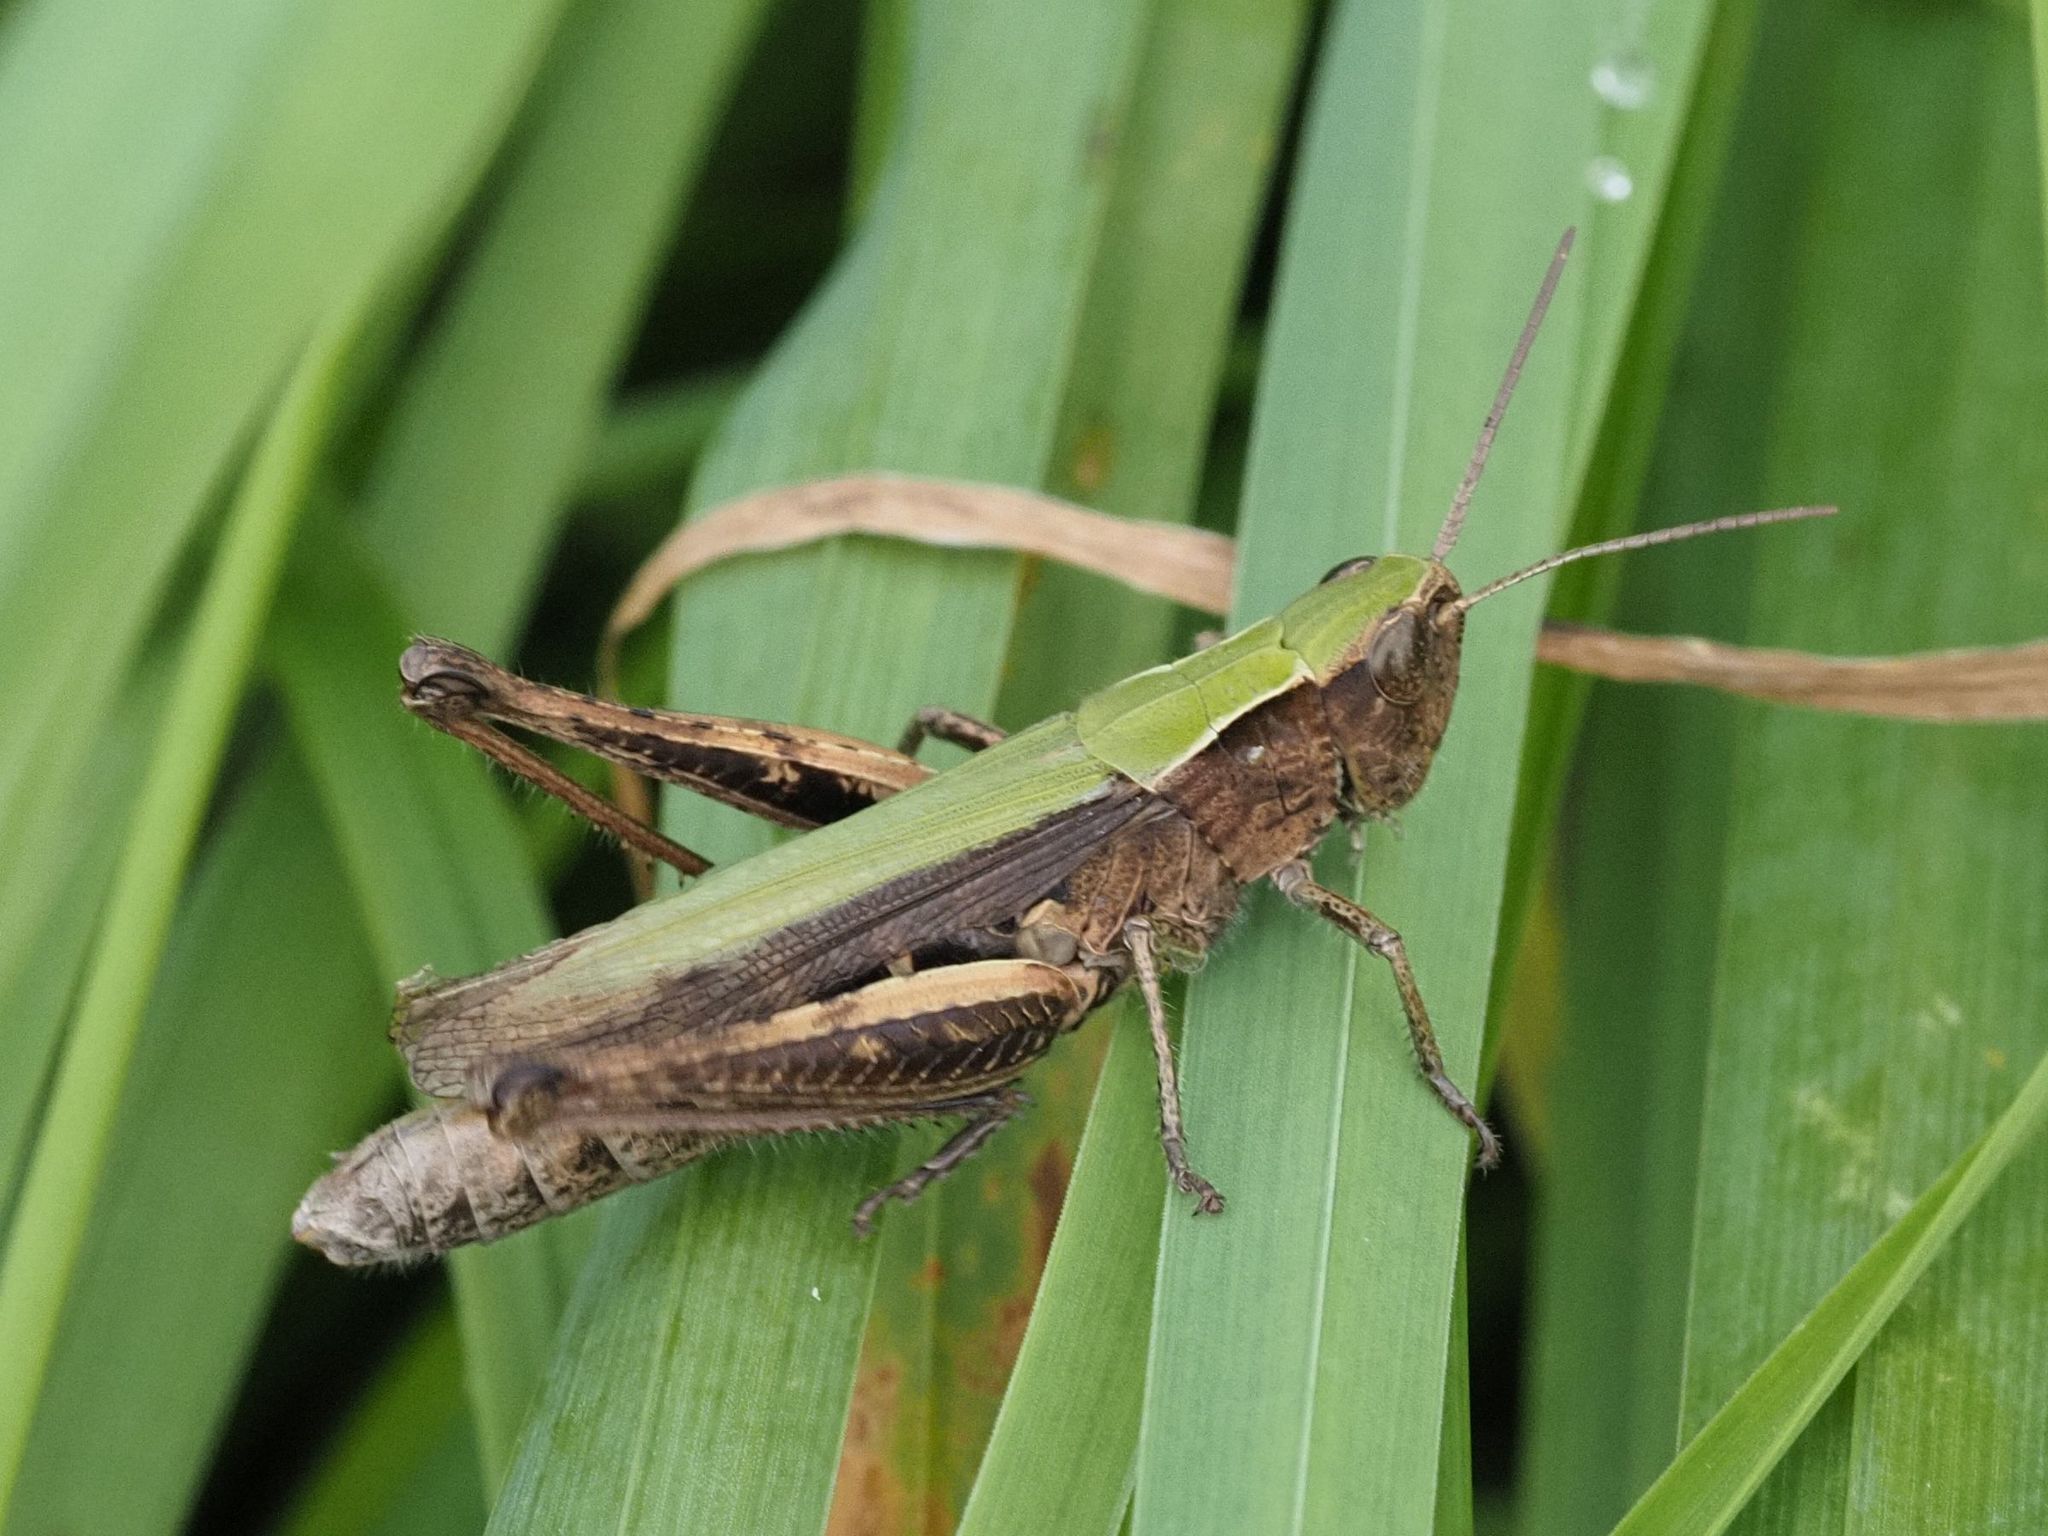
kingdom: Animalia
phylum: Arthropoda
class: Insecta
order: Orthoptera
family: Acrididae
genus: Chorthippus
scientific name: Chorthippus dorsatus
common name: Steppe grasshopper
